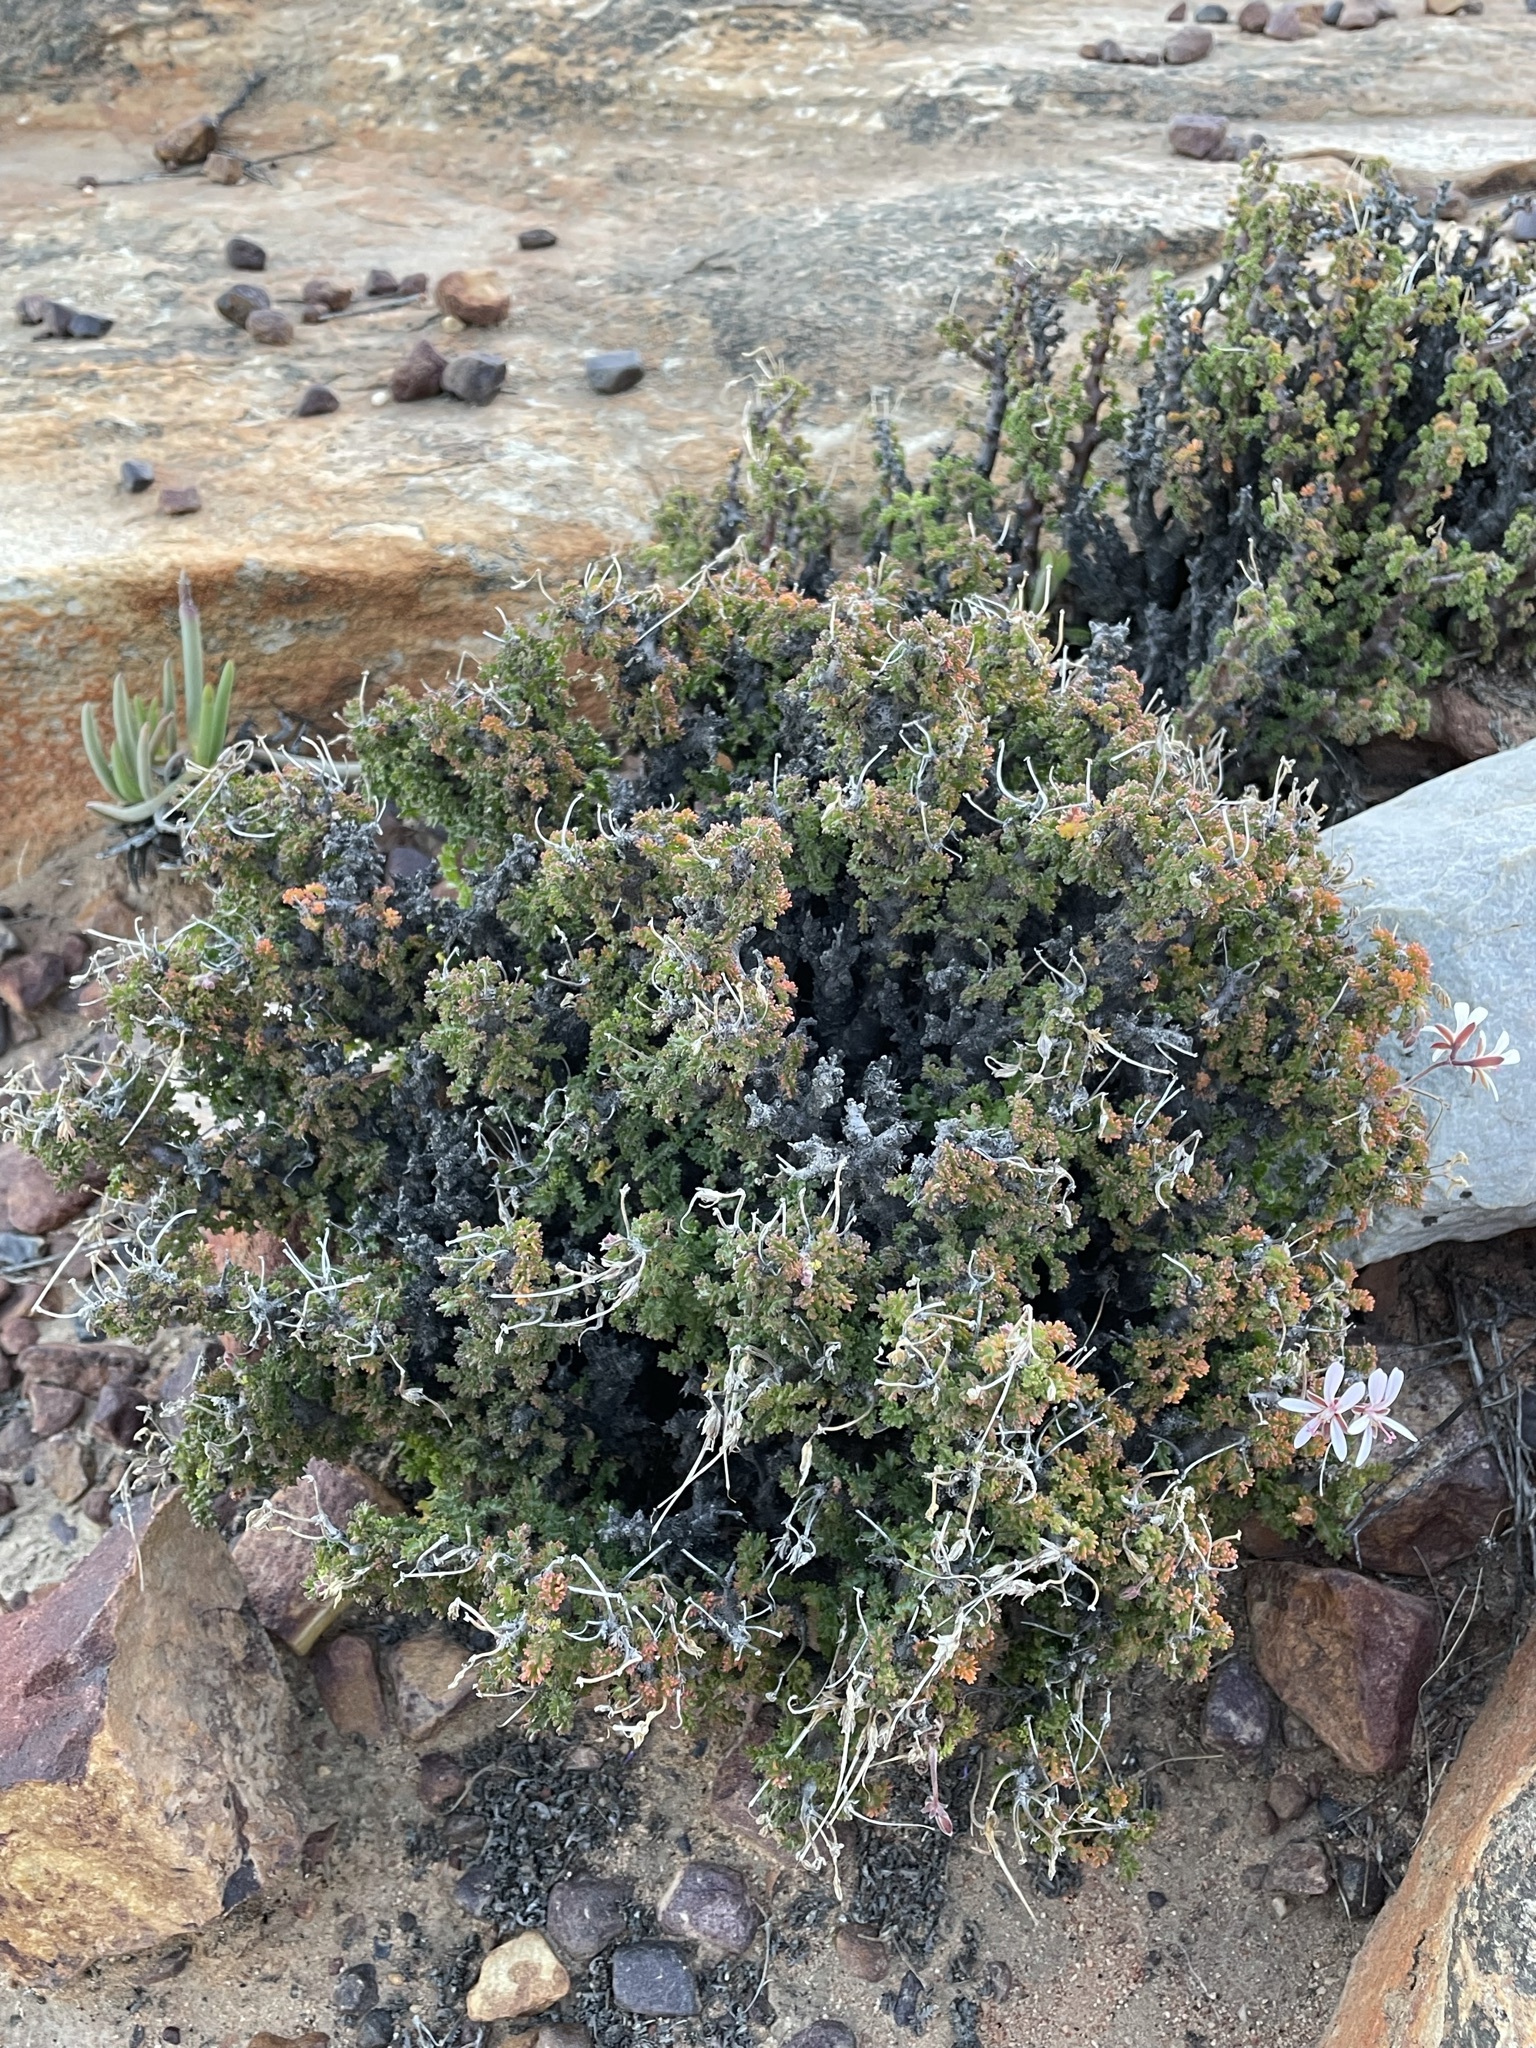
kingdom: Plantae
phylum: Tracheophyta
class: Magnoliopsida
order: Geraniales
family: Geraniaceae
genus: Pelargonium
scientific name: Pelargonium alternans
